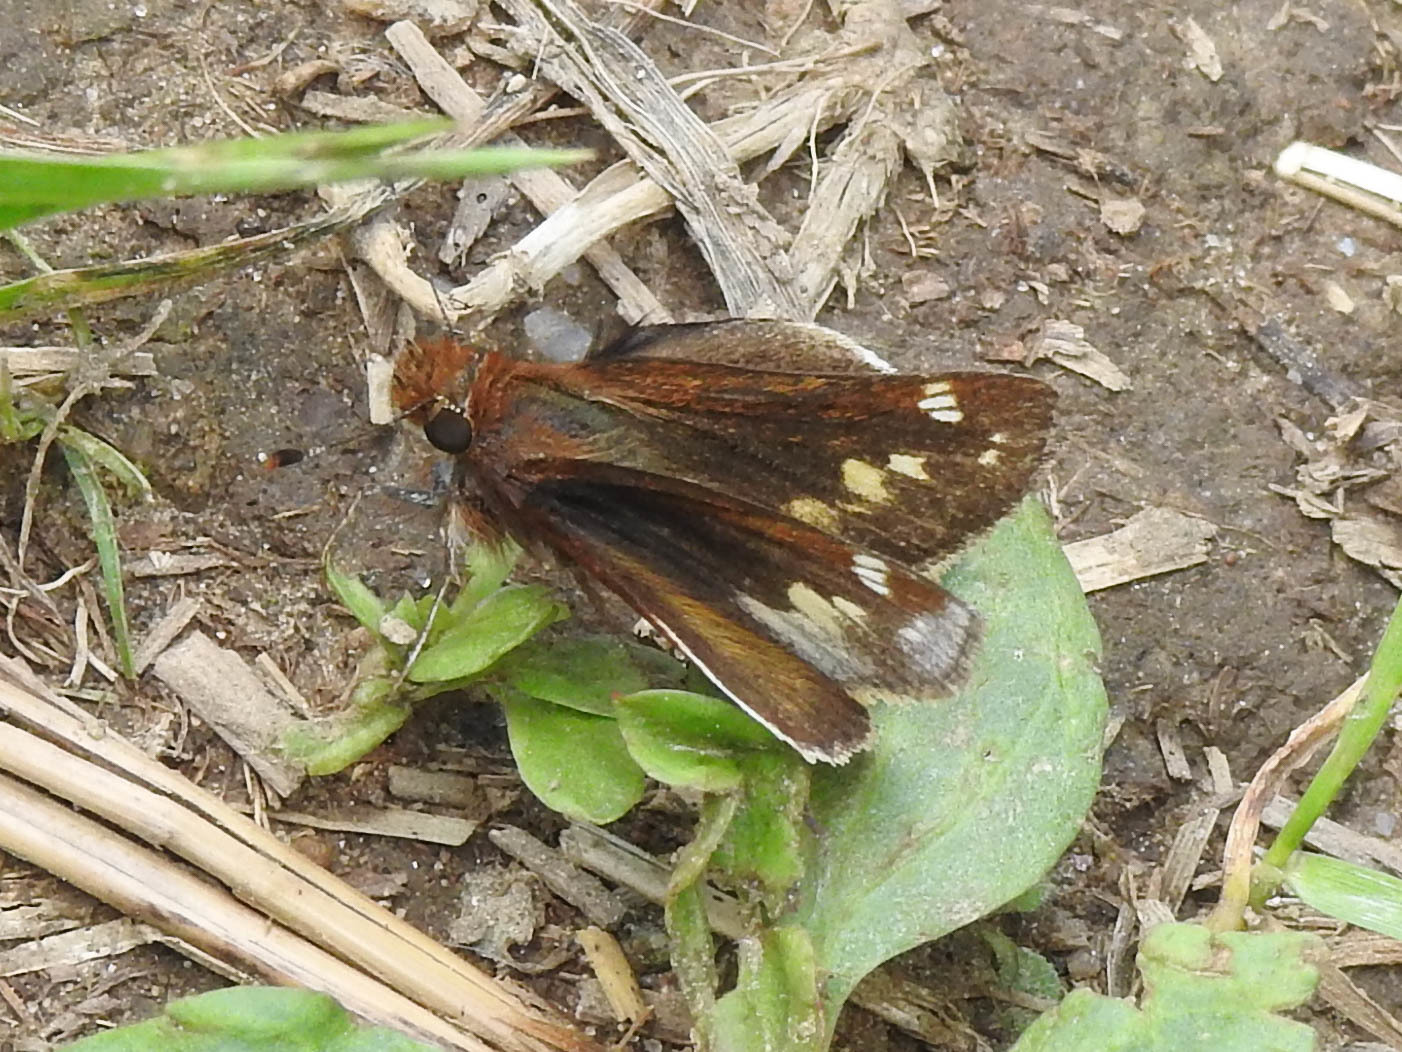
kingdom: Animalia
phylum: Arthropoda
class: Insecta
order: Lepidoptera
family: Hesperiidae
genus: Lon
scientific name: Lon zabulon
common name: Zabulon skipper
